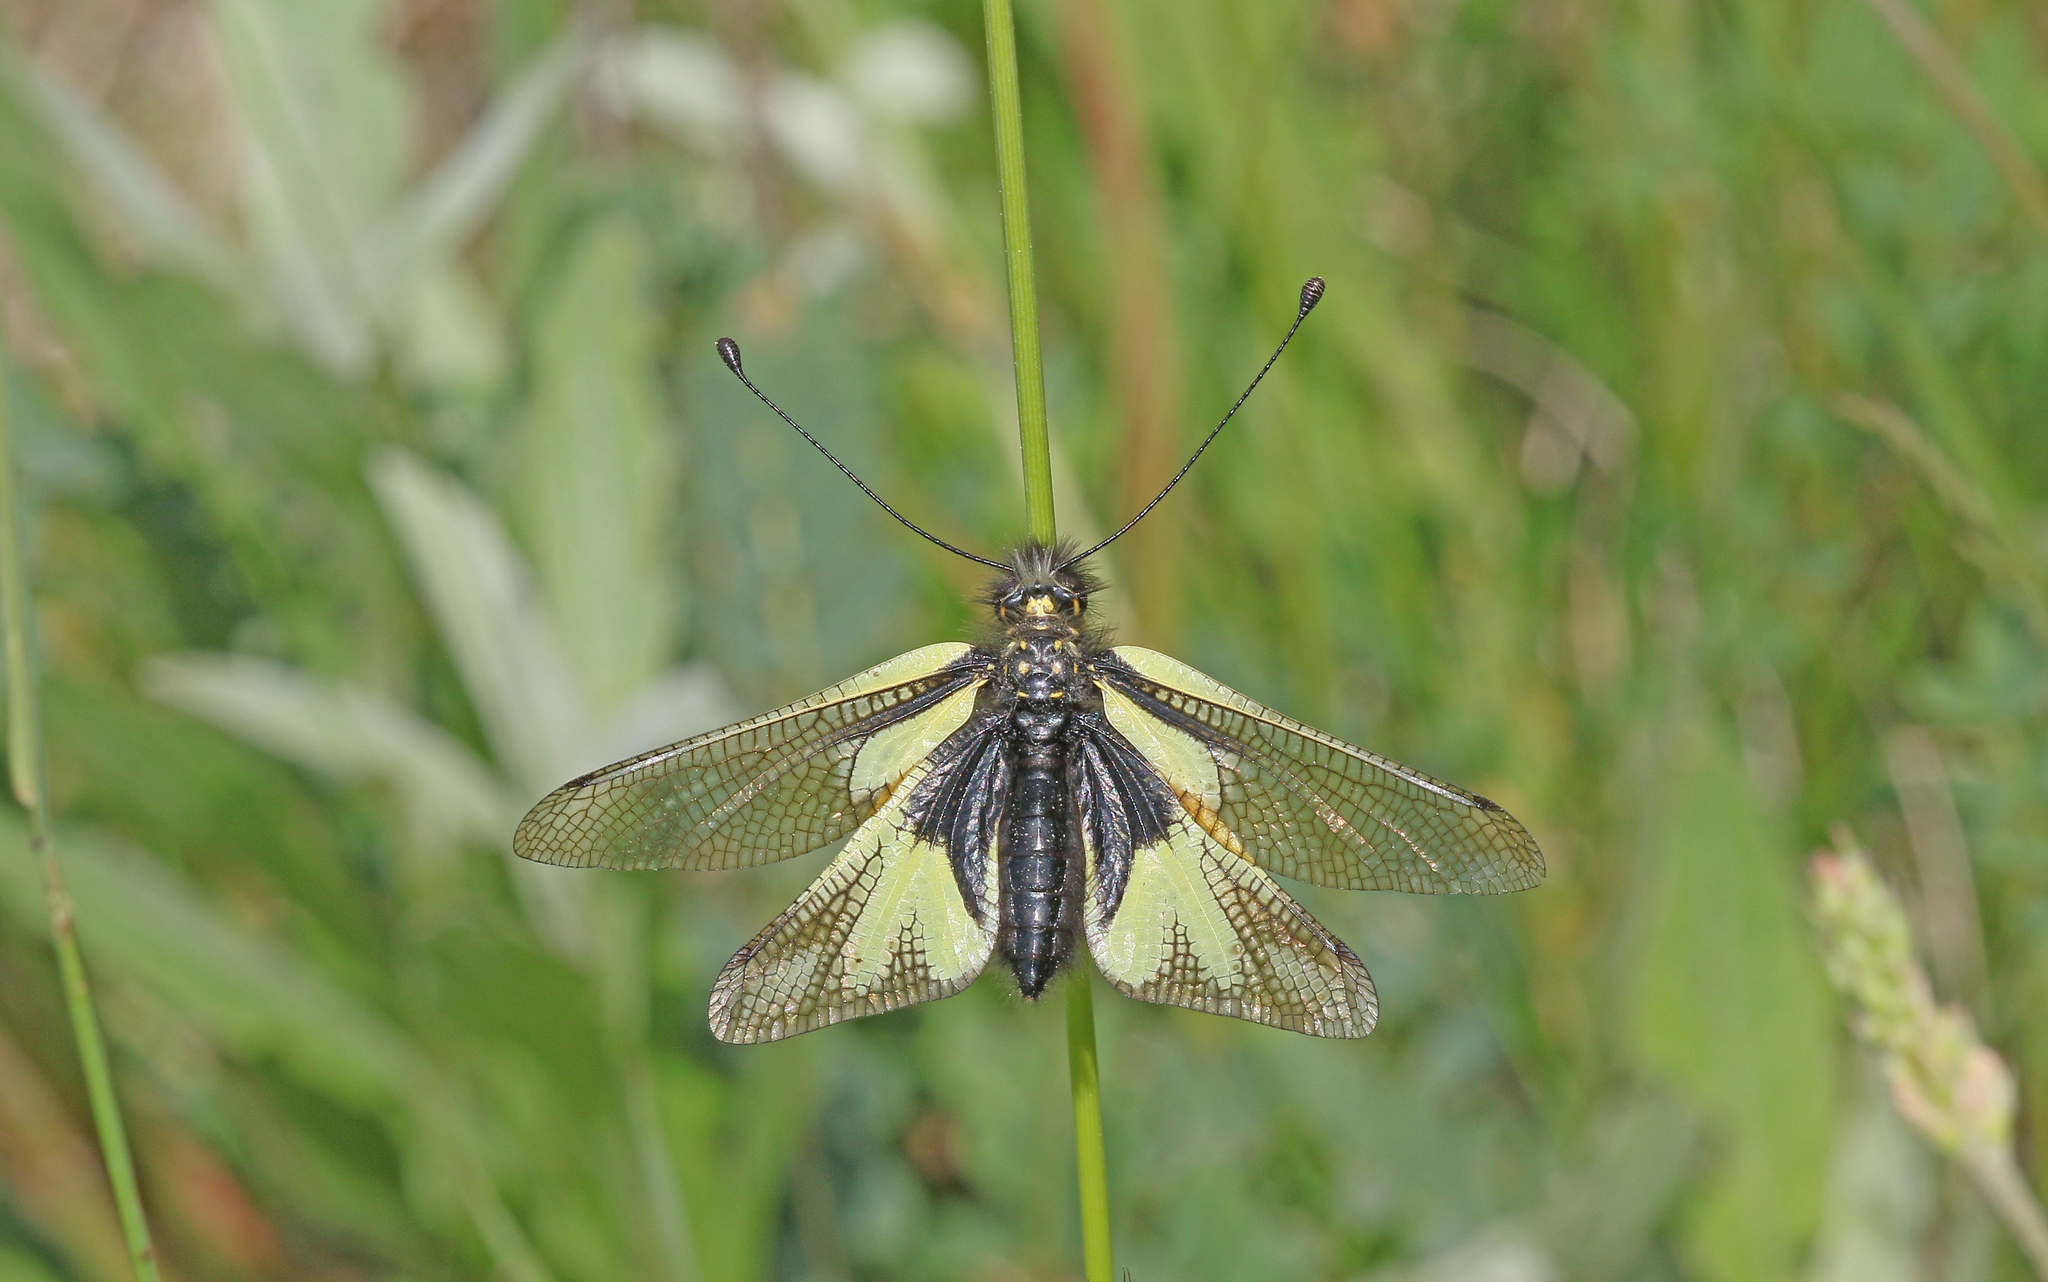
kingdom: Animalia
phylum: Arthropoda
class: Insecta
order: Neuroptera
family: Ascalaphidae
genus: Libelloides
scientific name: Libelloides coccajus
